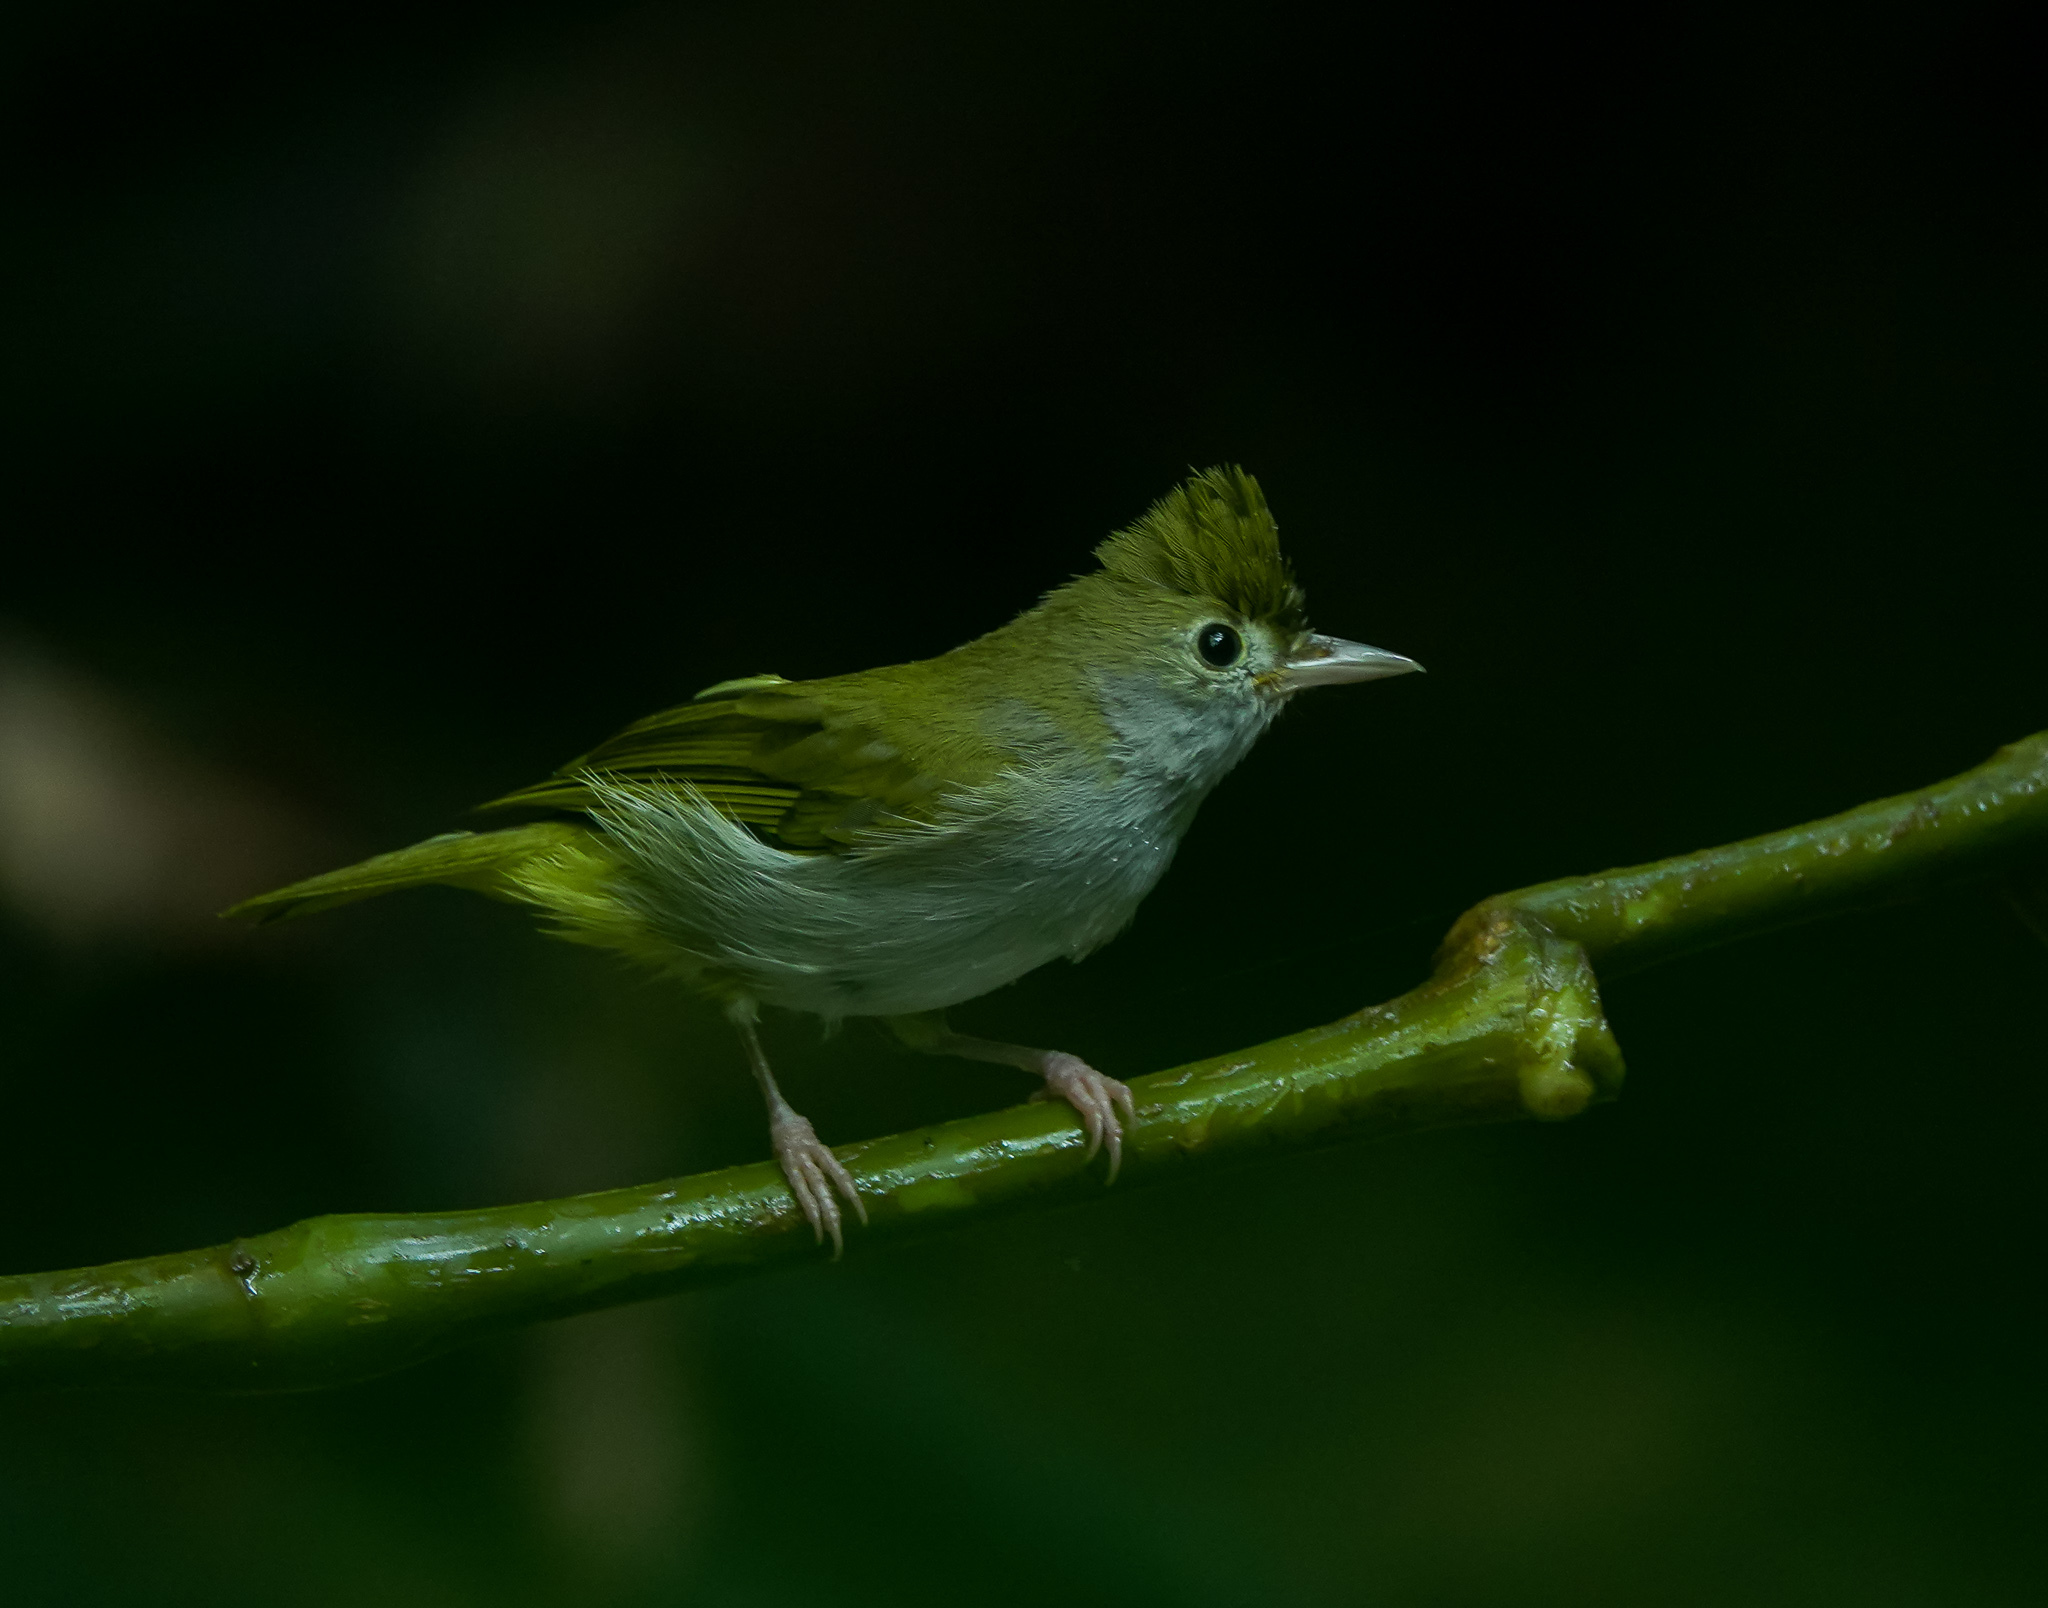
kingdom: Animalia
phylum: Chordata
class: Aves
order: Passeriformes
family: Vireonidae
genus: Erpornis
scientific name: Erpornis zantholeuca
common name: White-bellied erpornis
